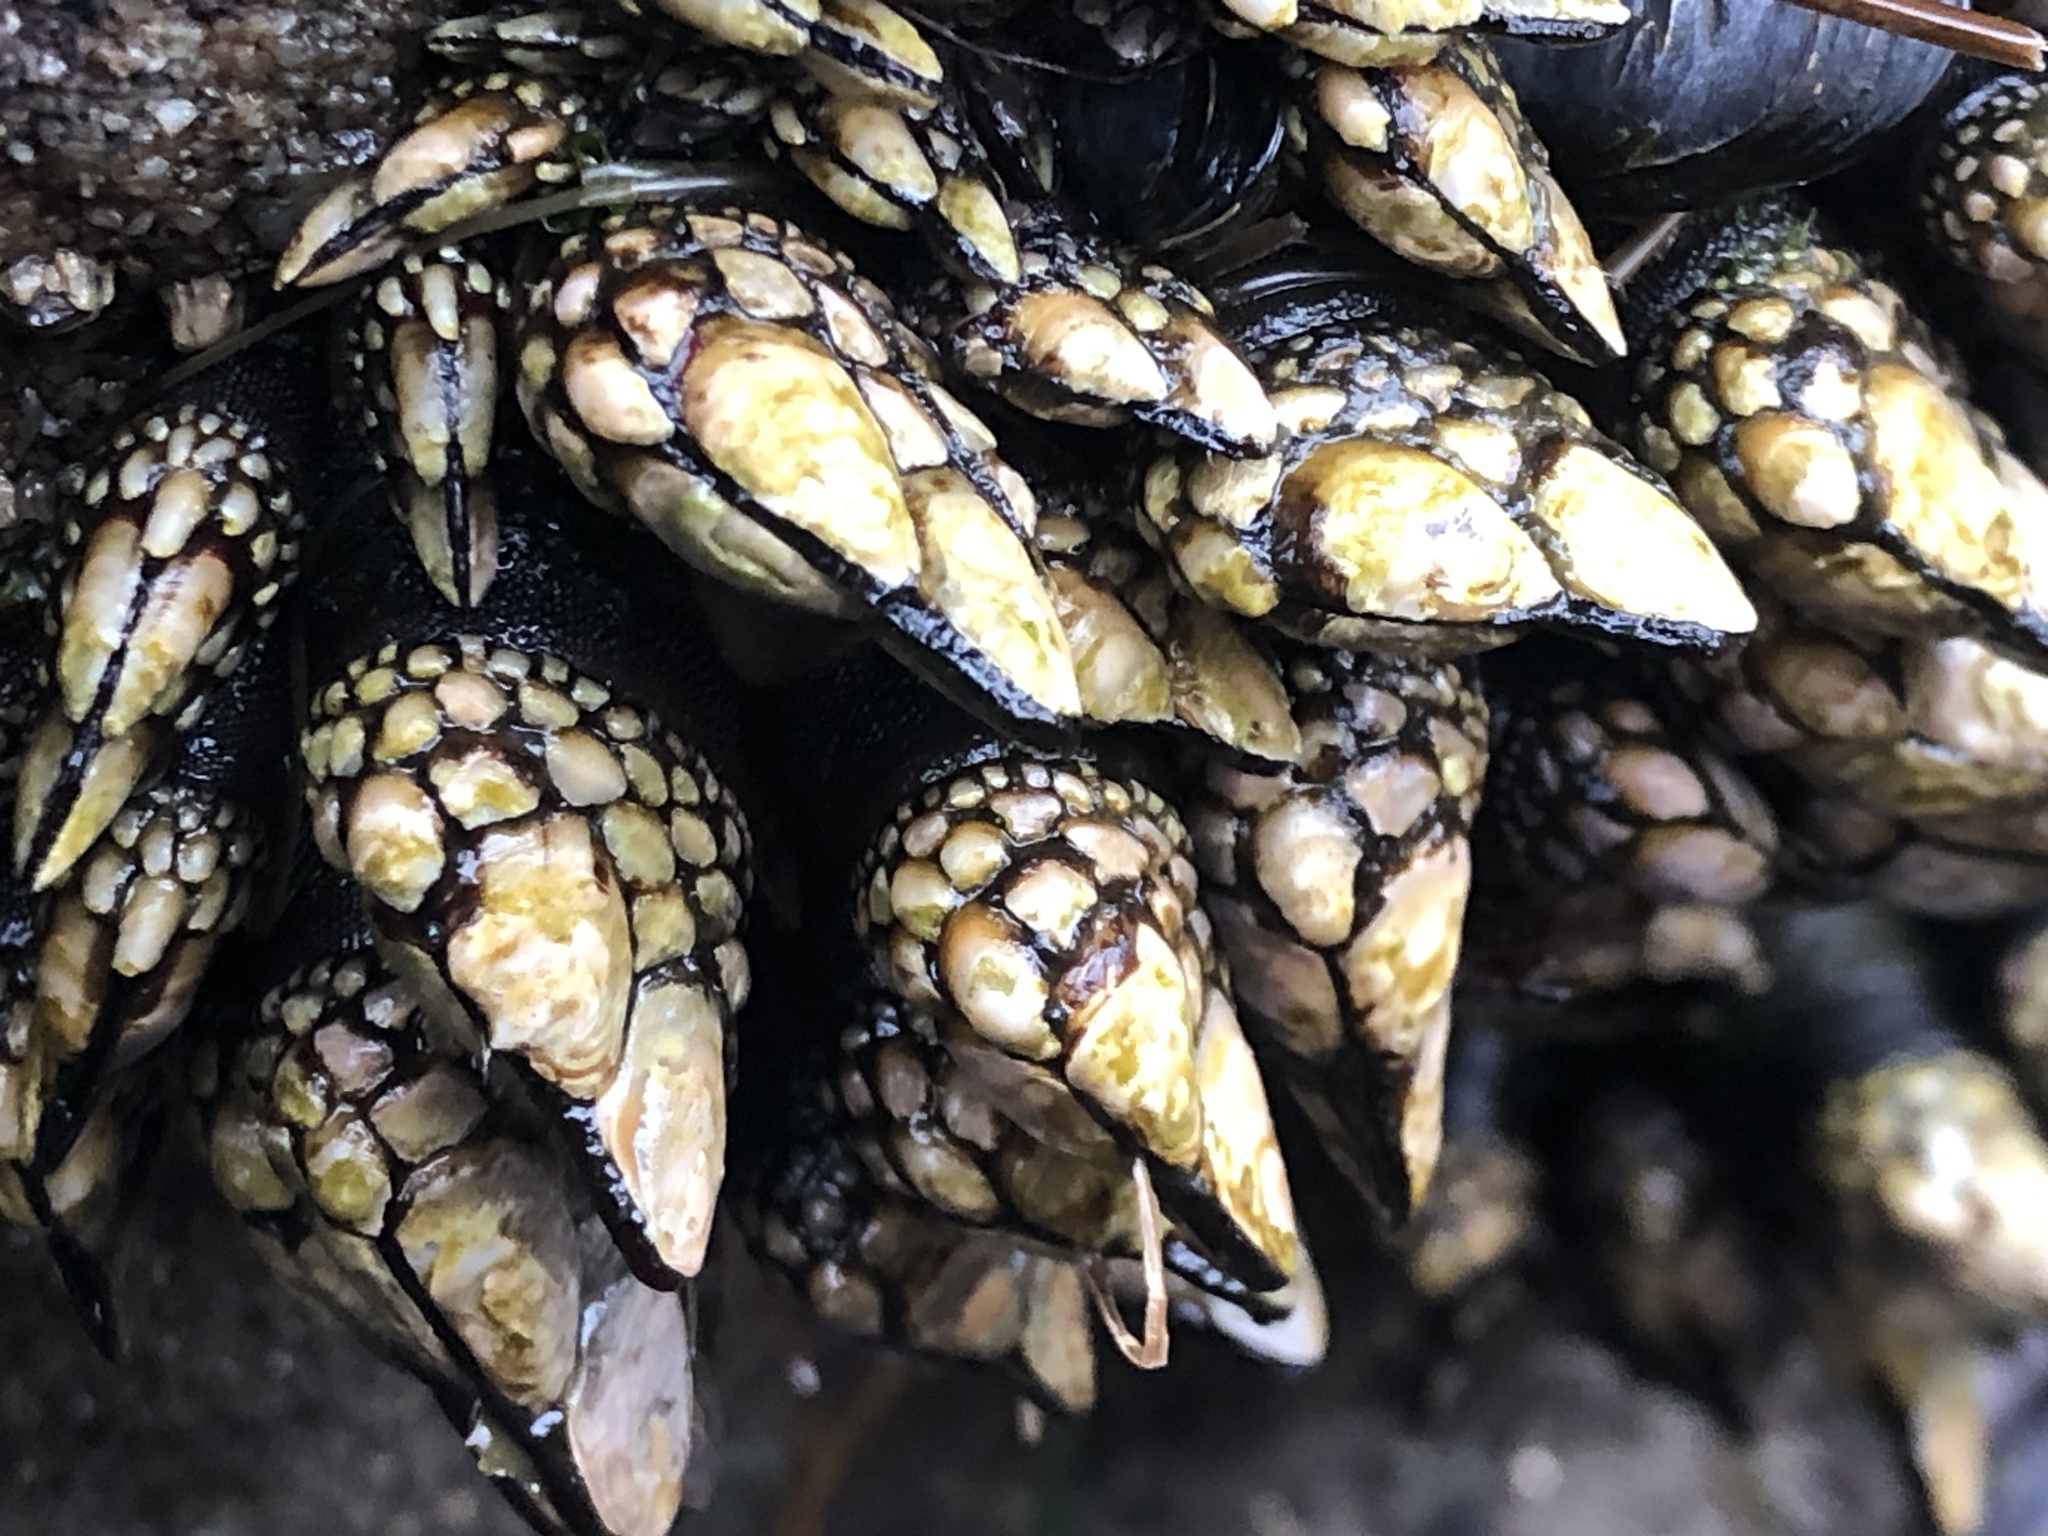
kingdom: Animalia
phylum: Arthropoda
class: Maxillopoda
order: Pedunculata
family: Pollicipedidae
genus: Pollicipes
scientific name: Pollicipes polymerus
